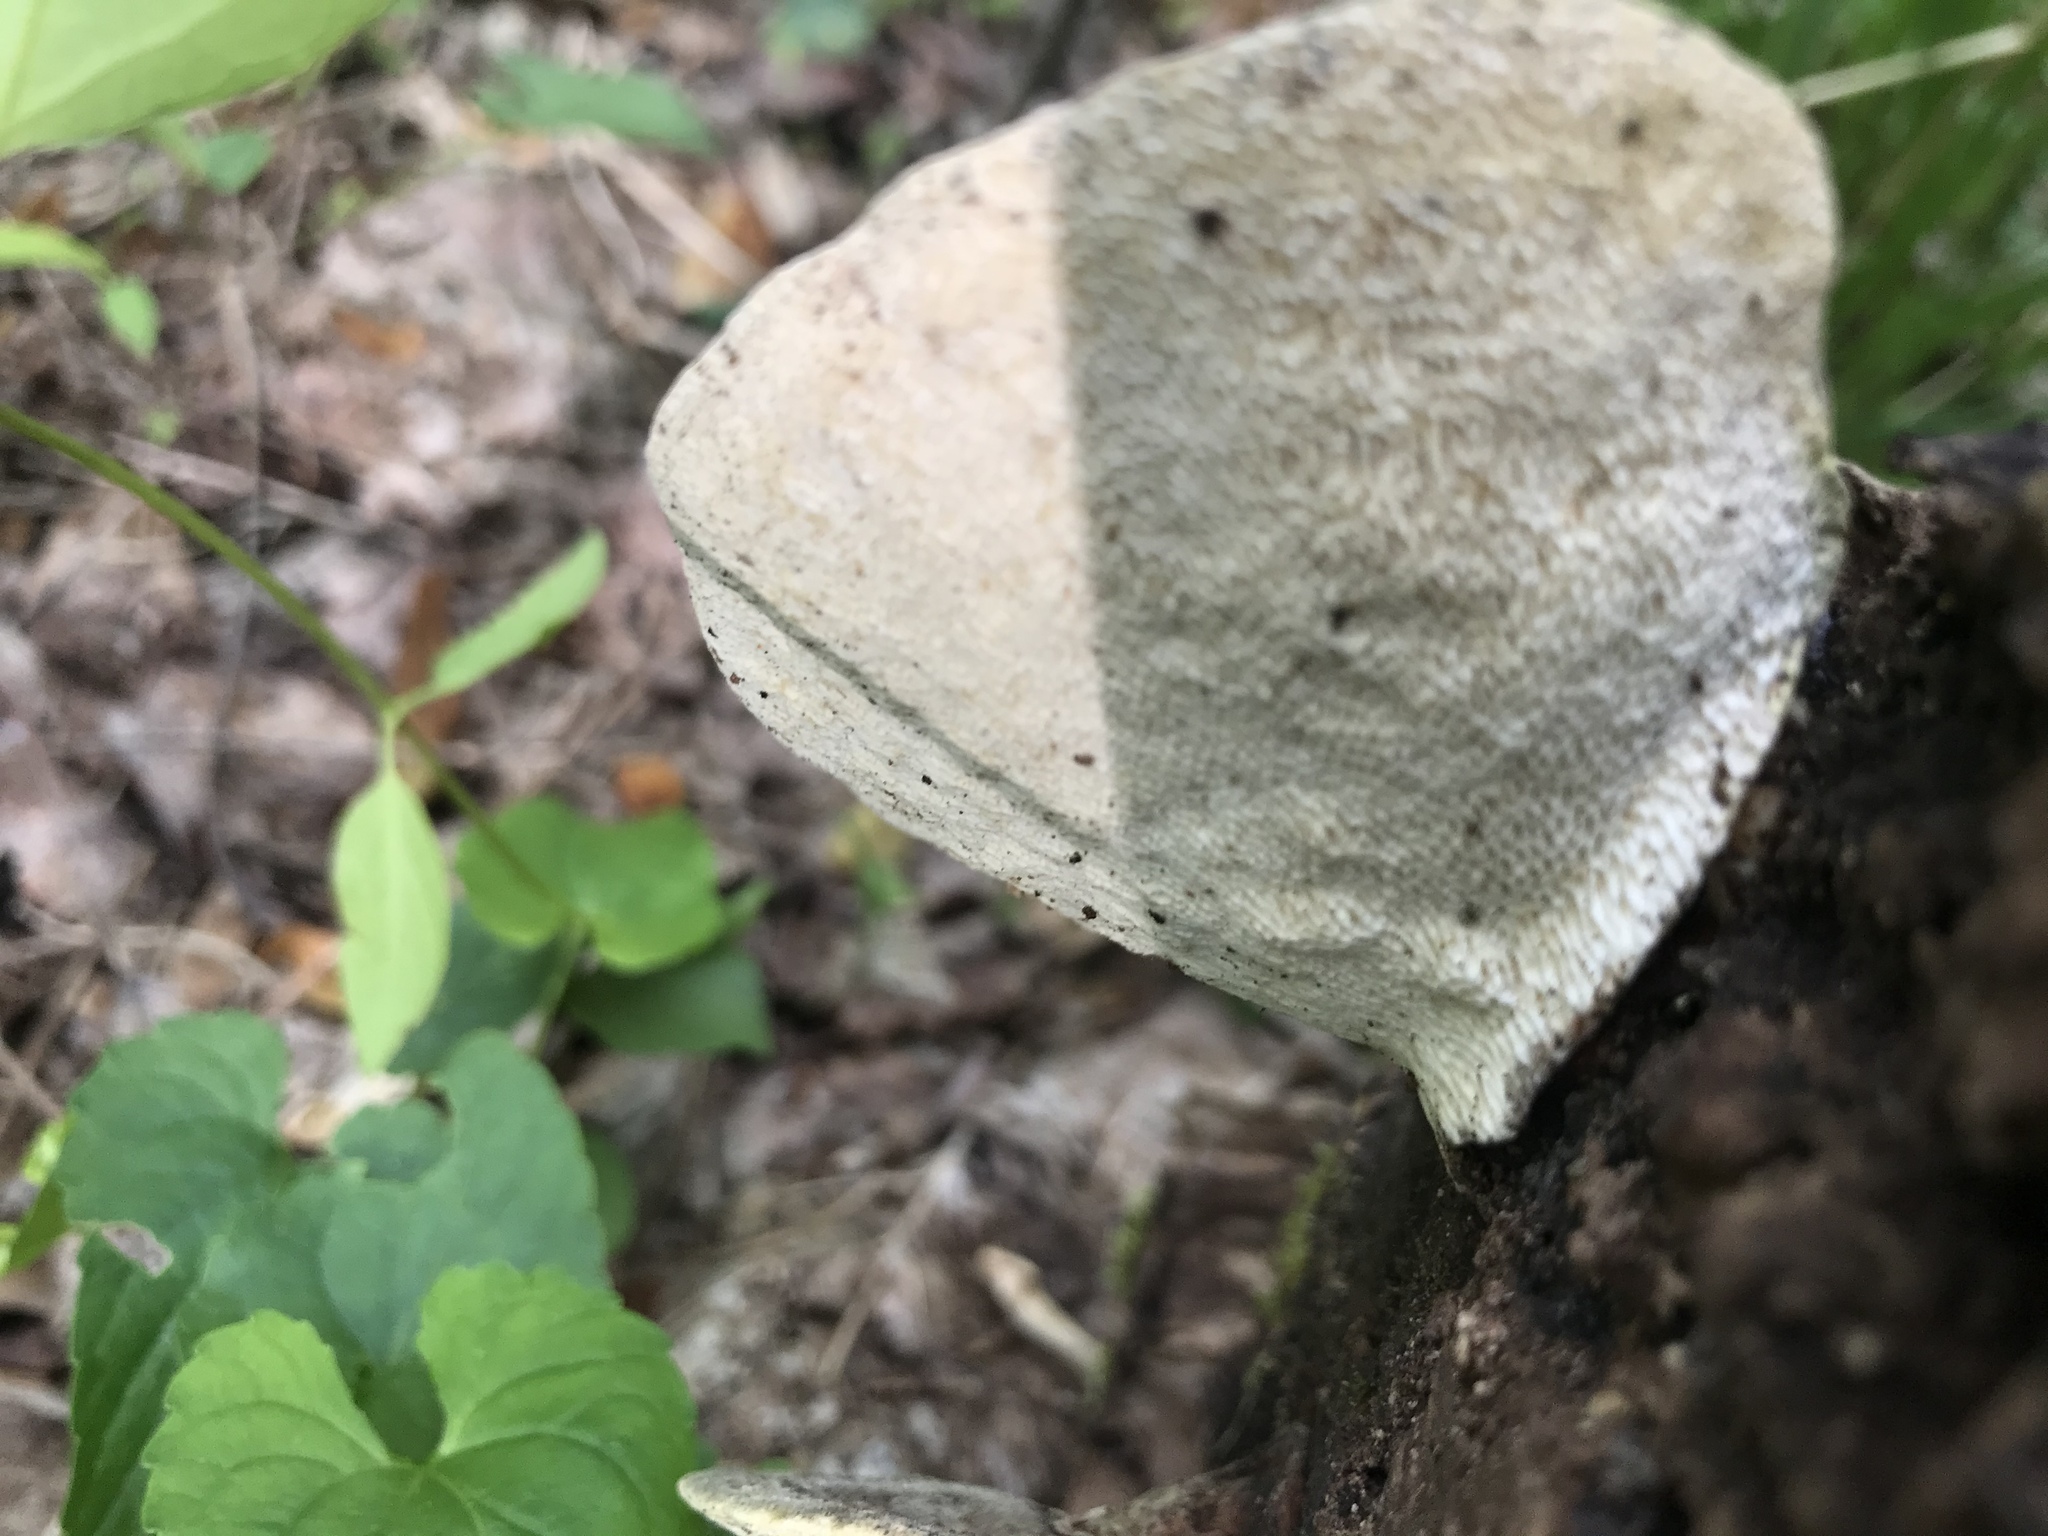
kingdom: Fungi
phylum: Basidiomycota
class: Agaricomycetes
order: Polyporales
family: Polyporaceae
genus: Trametes
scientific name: Trametes gibbosa
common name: Lumpy bracket
